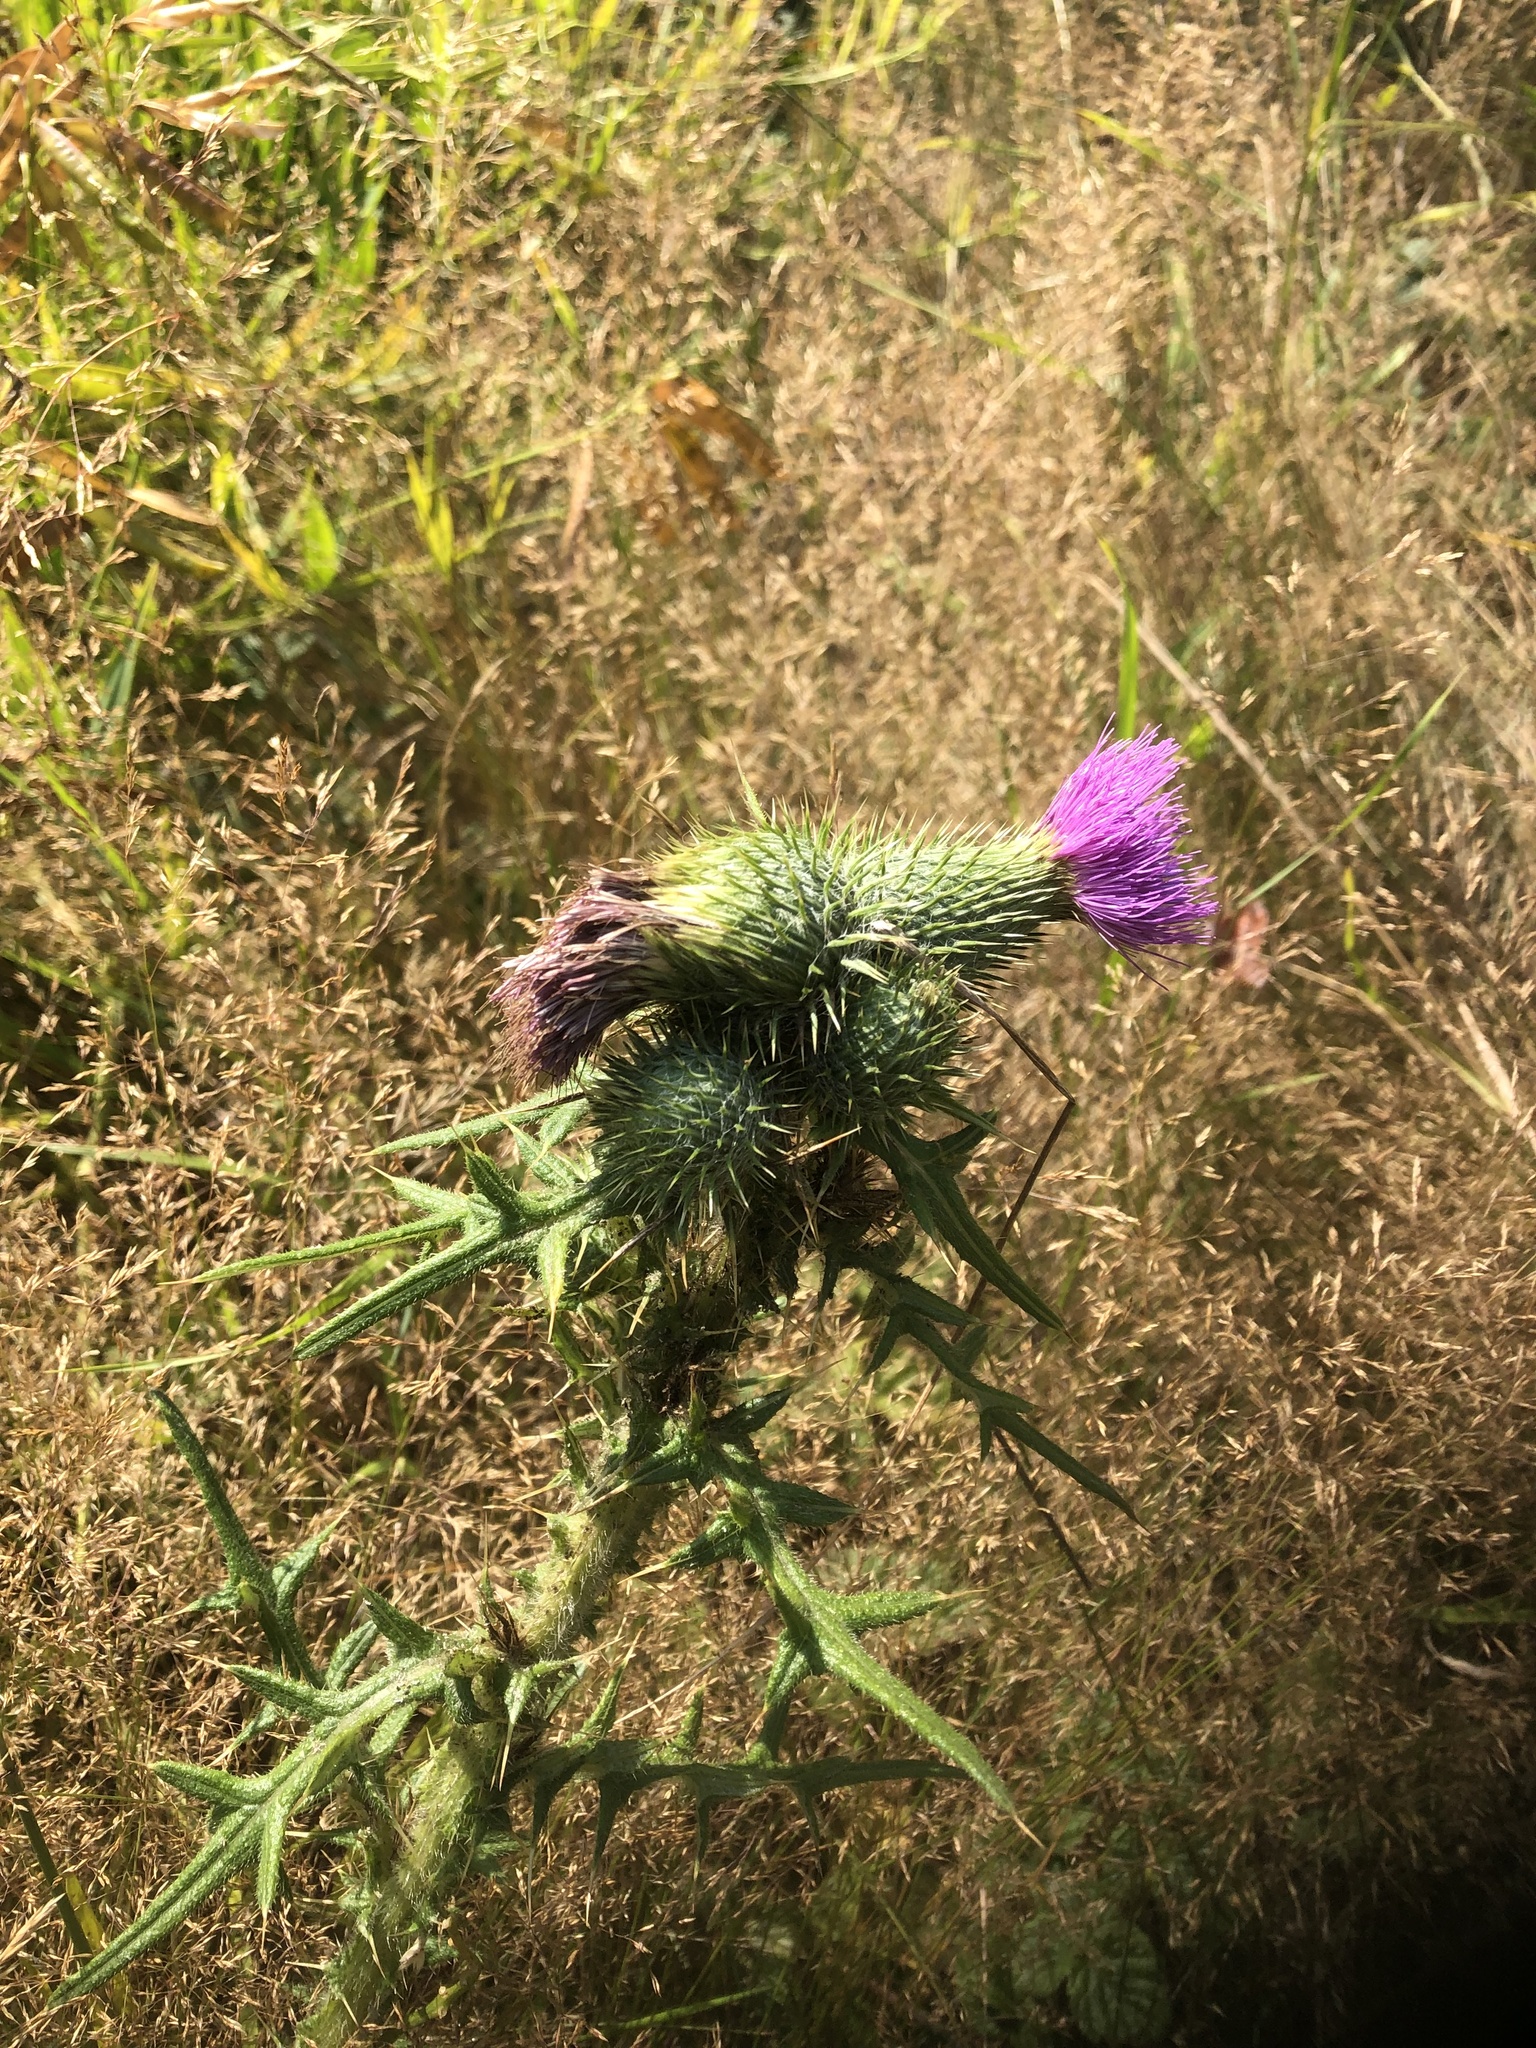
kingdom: Plantae
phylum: Tracheophyta
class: Magnoliopsida
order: Asterales
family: Asteraceae
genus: Cirsium
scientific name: Cirsium vulgare
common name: Bull thistle
